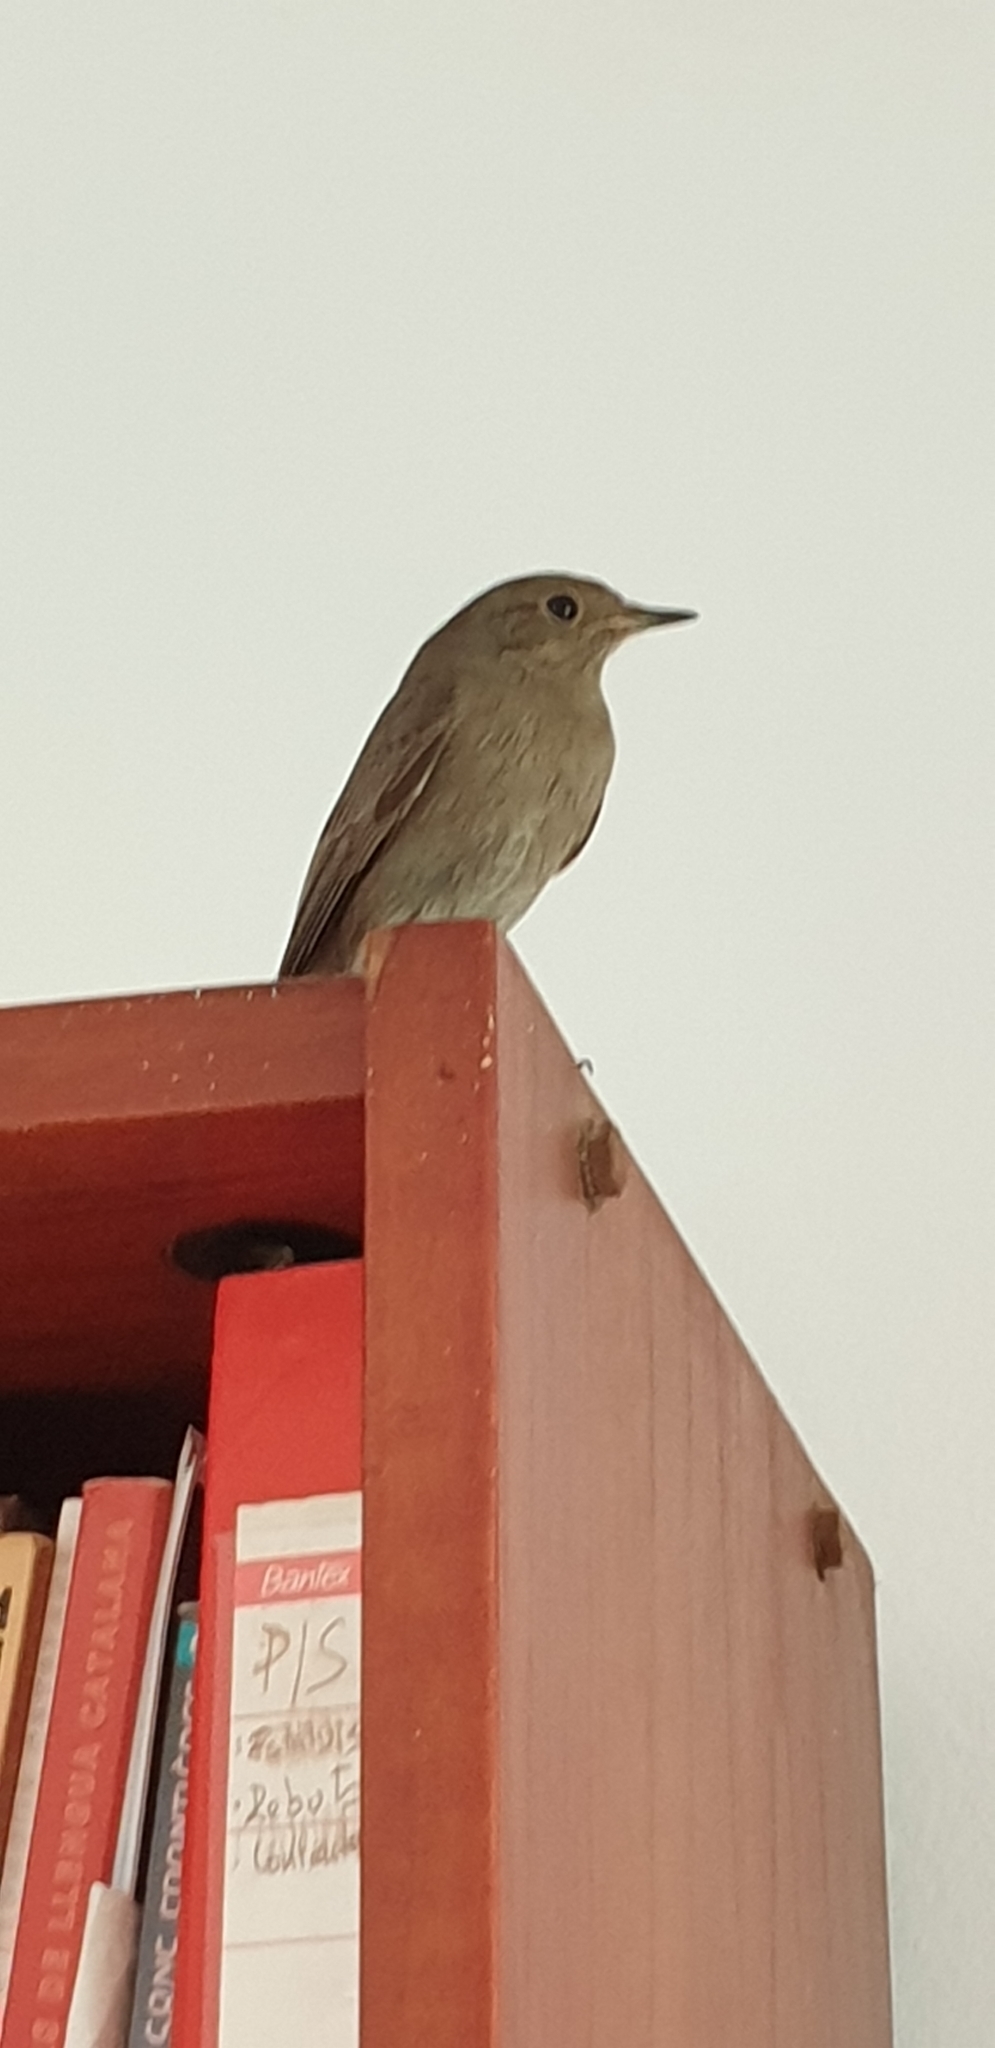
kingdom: Animalia
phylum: Chordata
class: Aves
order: Passeriformes
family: Muscicapidae
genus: Phoenicurus
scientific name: Phoenicurus ochruros
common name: Black redstart
